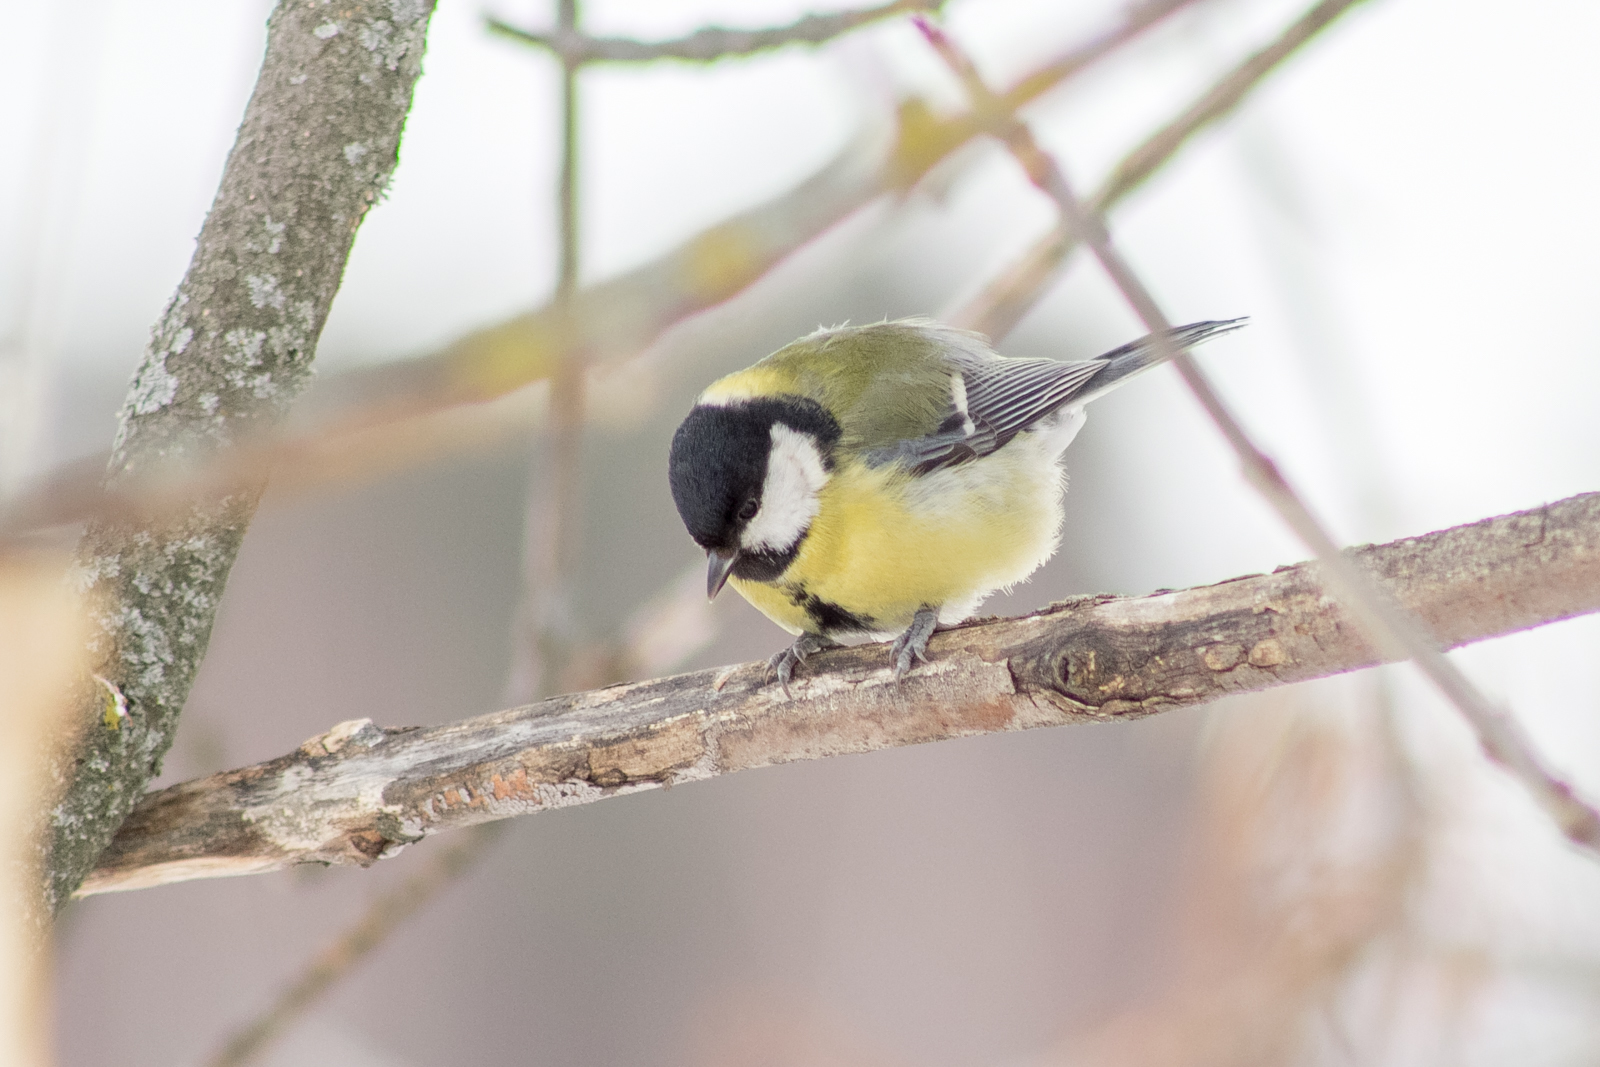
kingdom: Animalia
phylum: Chordata
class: Aves
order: Passeriformes
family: Paridae
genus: Parus
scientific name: Parus major
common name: Great tit
